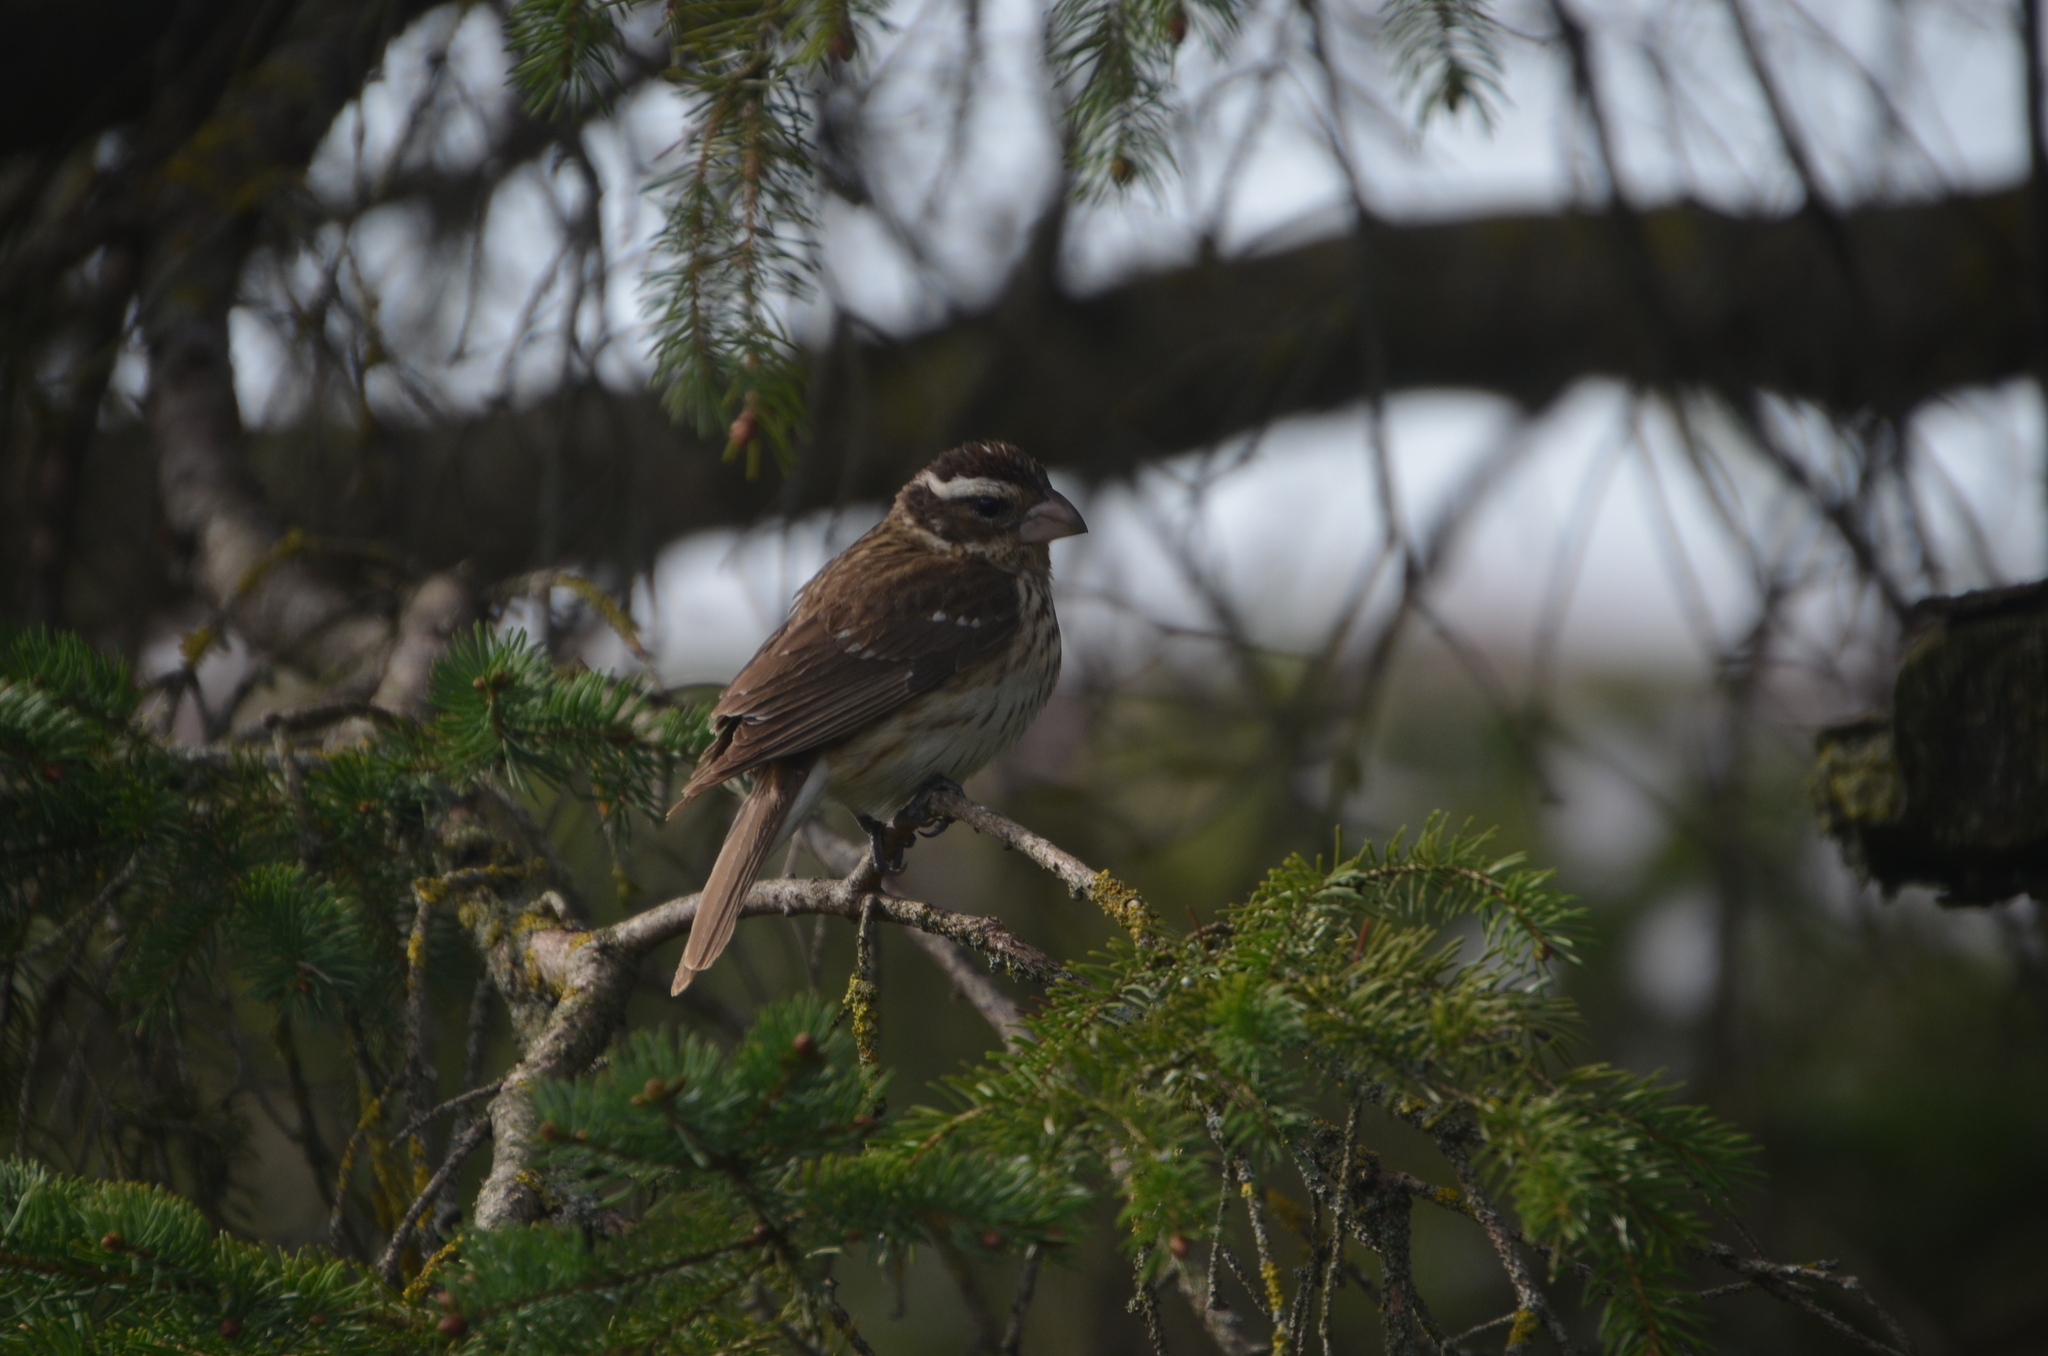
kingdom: Animalia
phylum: Chordata
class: Aves
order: Passeriformes
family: Cardinalidae
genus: Pheucticus
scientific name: Pheucticus ludovicianus
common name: Rose-breasted grosbeak
